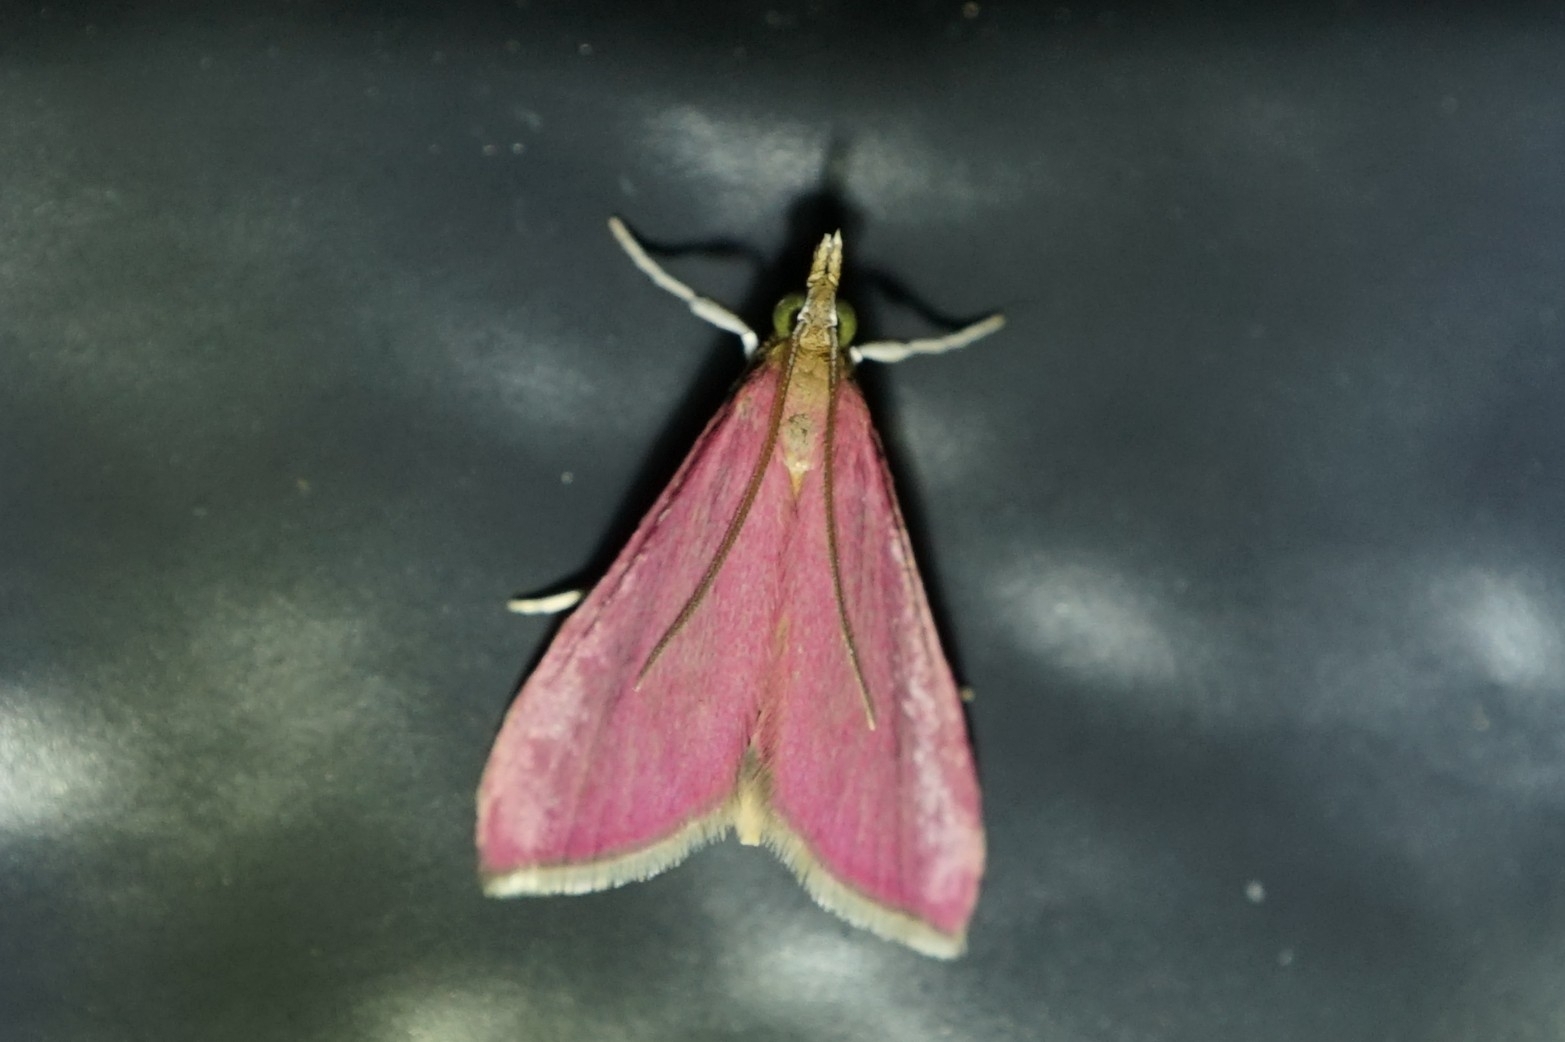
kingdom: Animalia
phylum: Arthropoda
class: Insecta
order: Lepidoptera
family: Crambidae
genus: Pyrausta
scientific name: Pyrausta inornatalis
